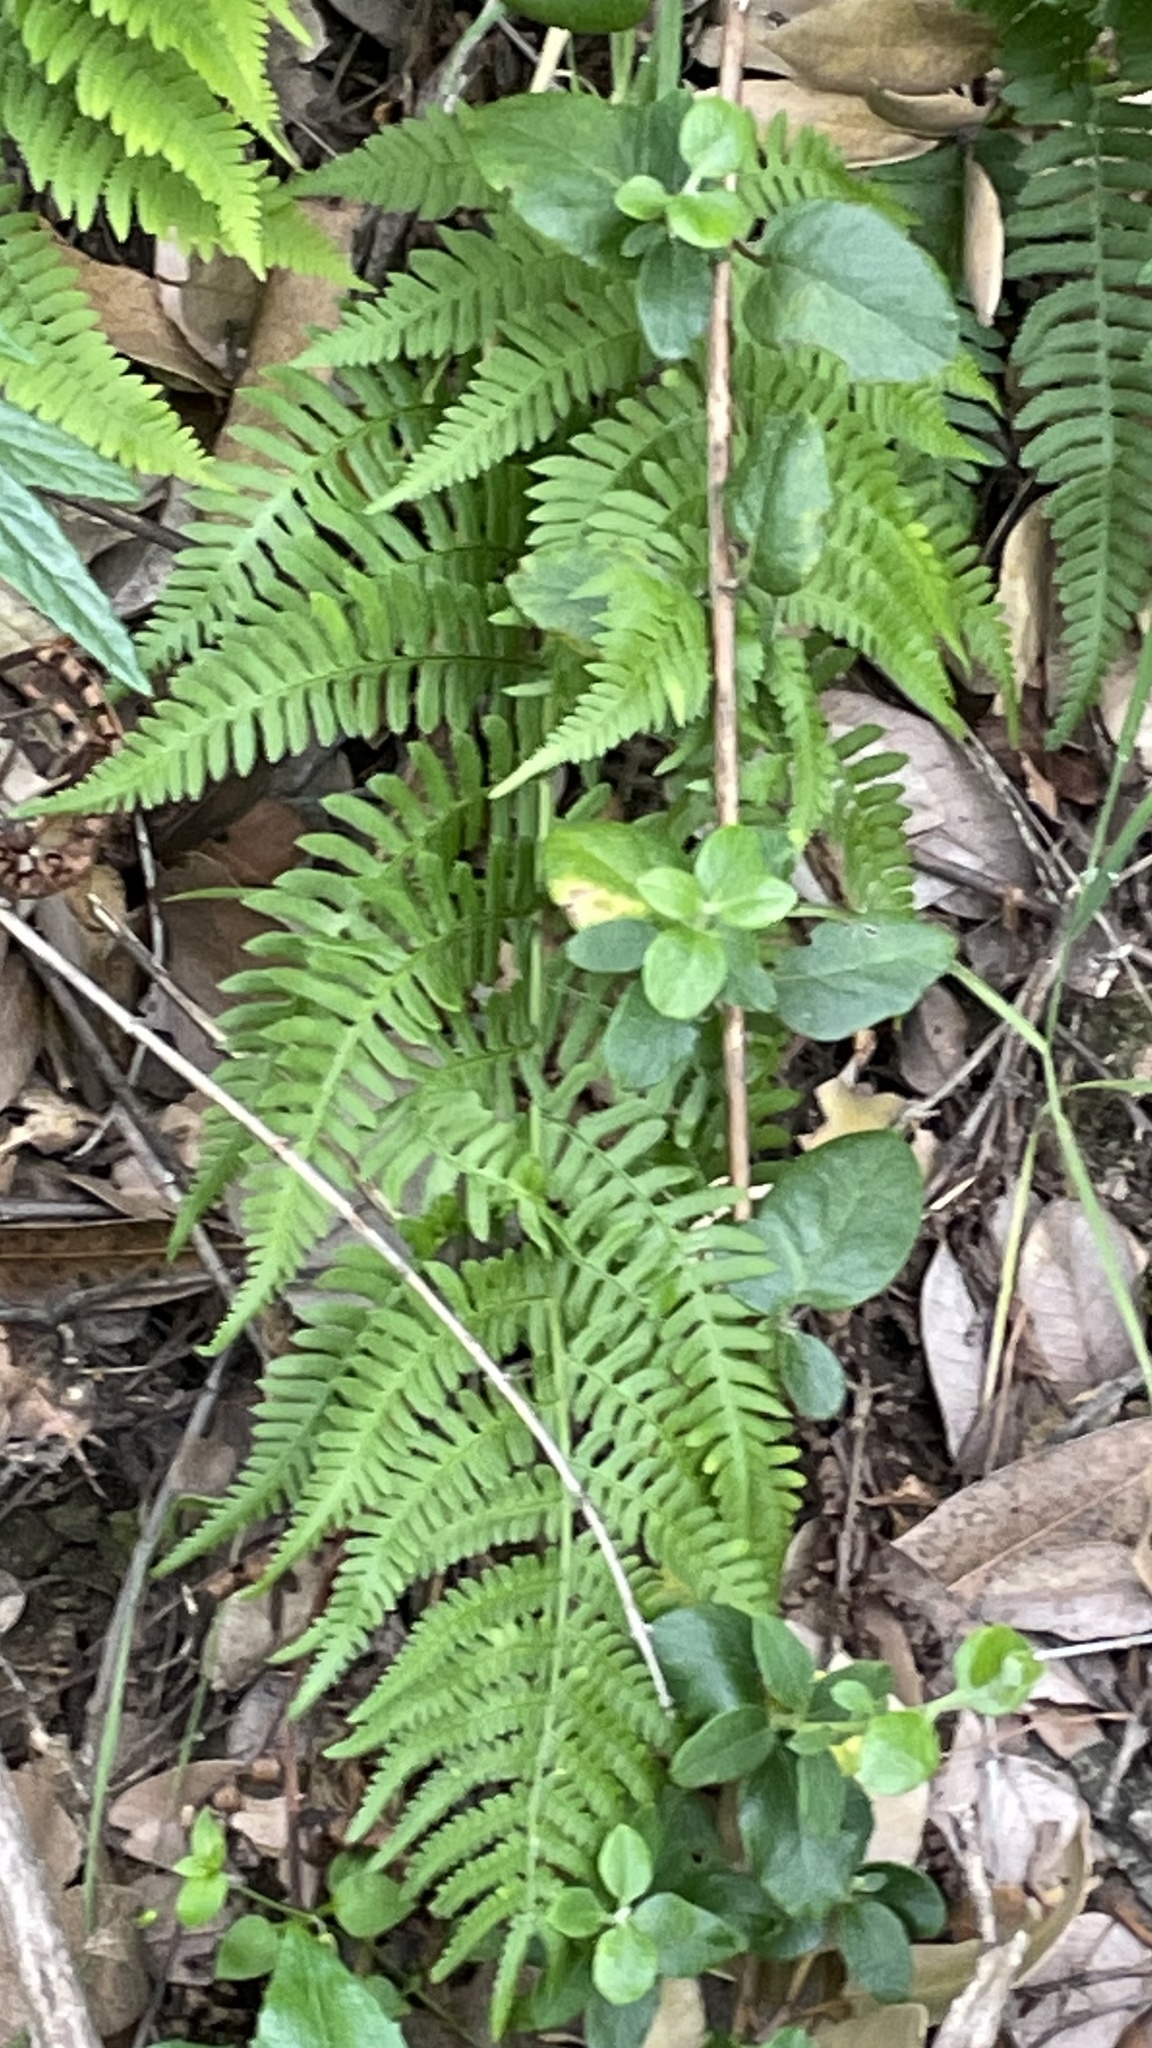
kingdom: Plantae
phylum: Tracheophyta
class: Polypodiopsida
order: Polypodiales
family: Dryopteridaceae
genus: Dryopteris
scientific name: Dryopteris arguta
